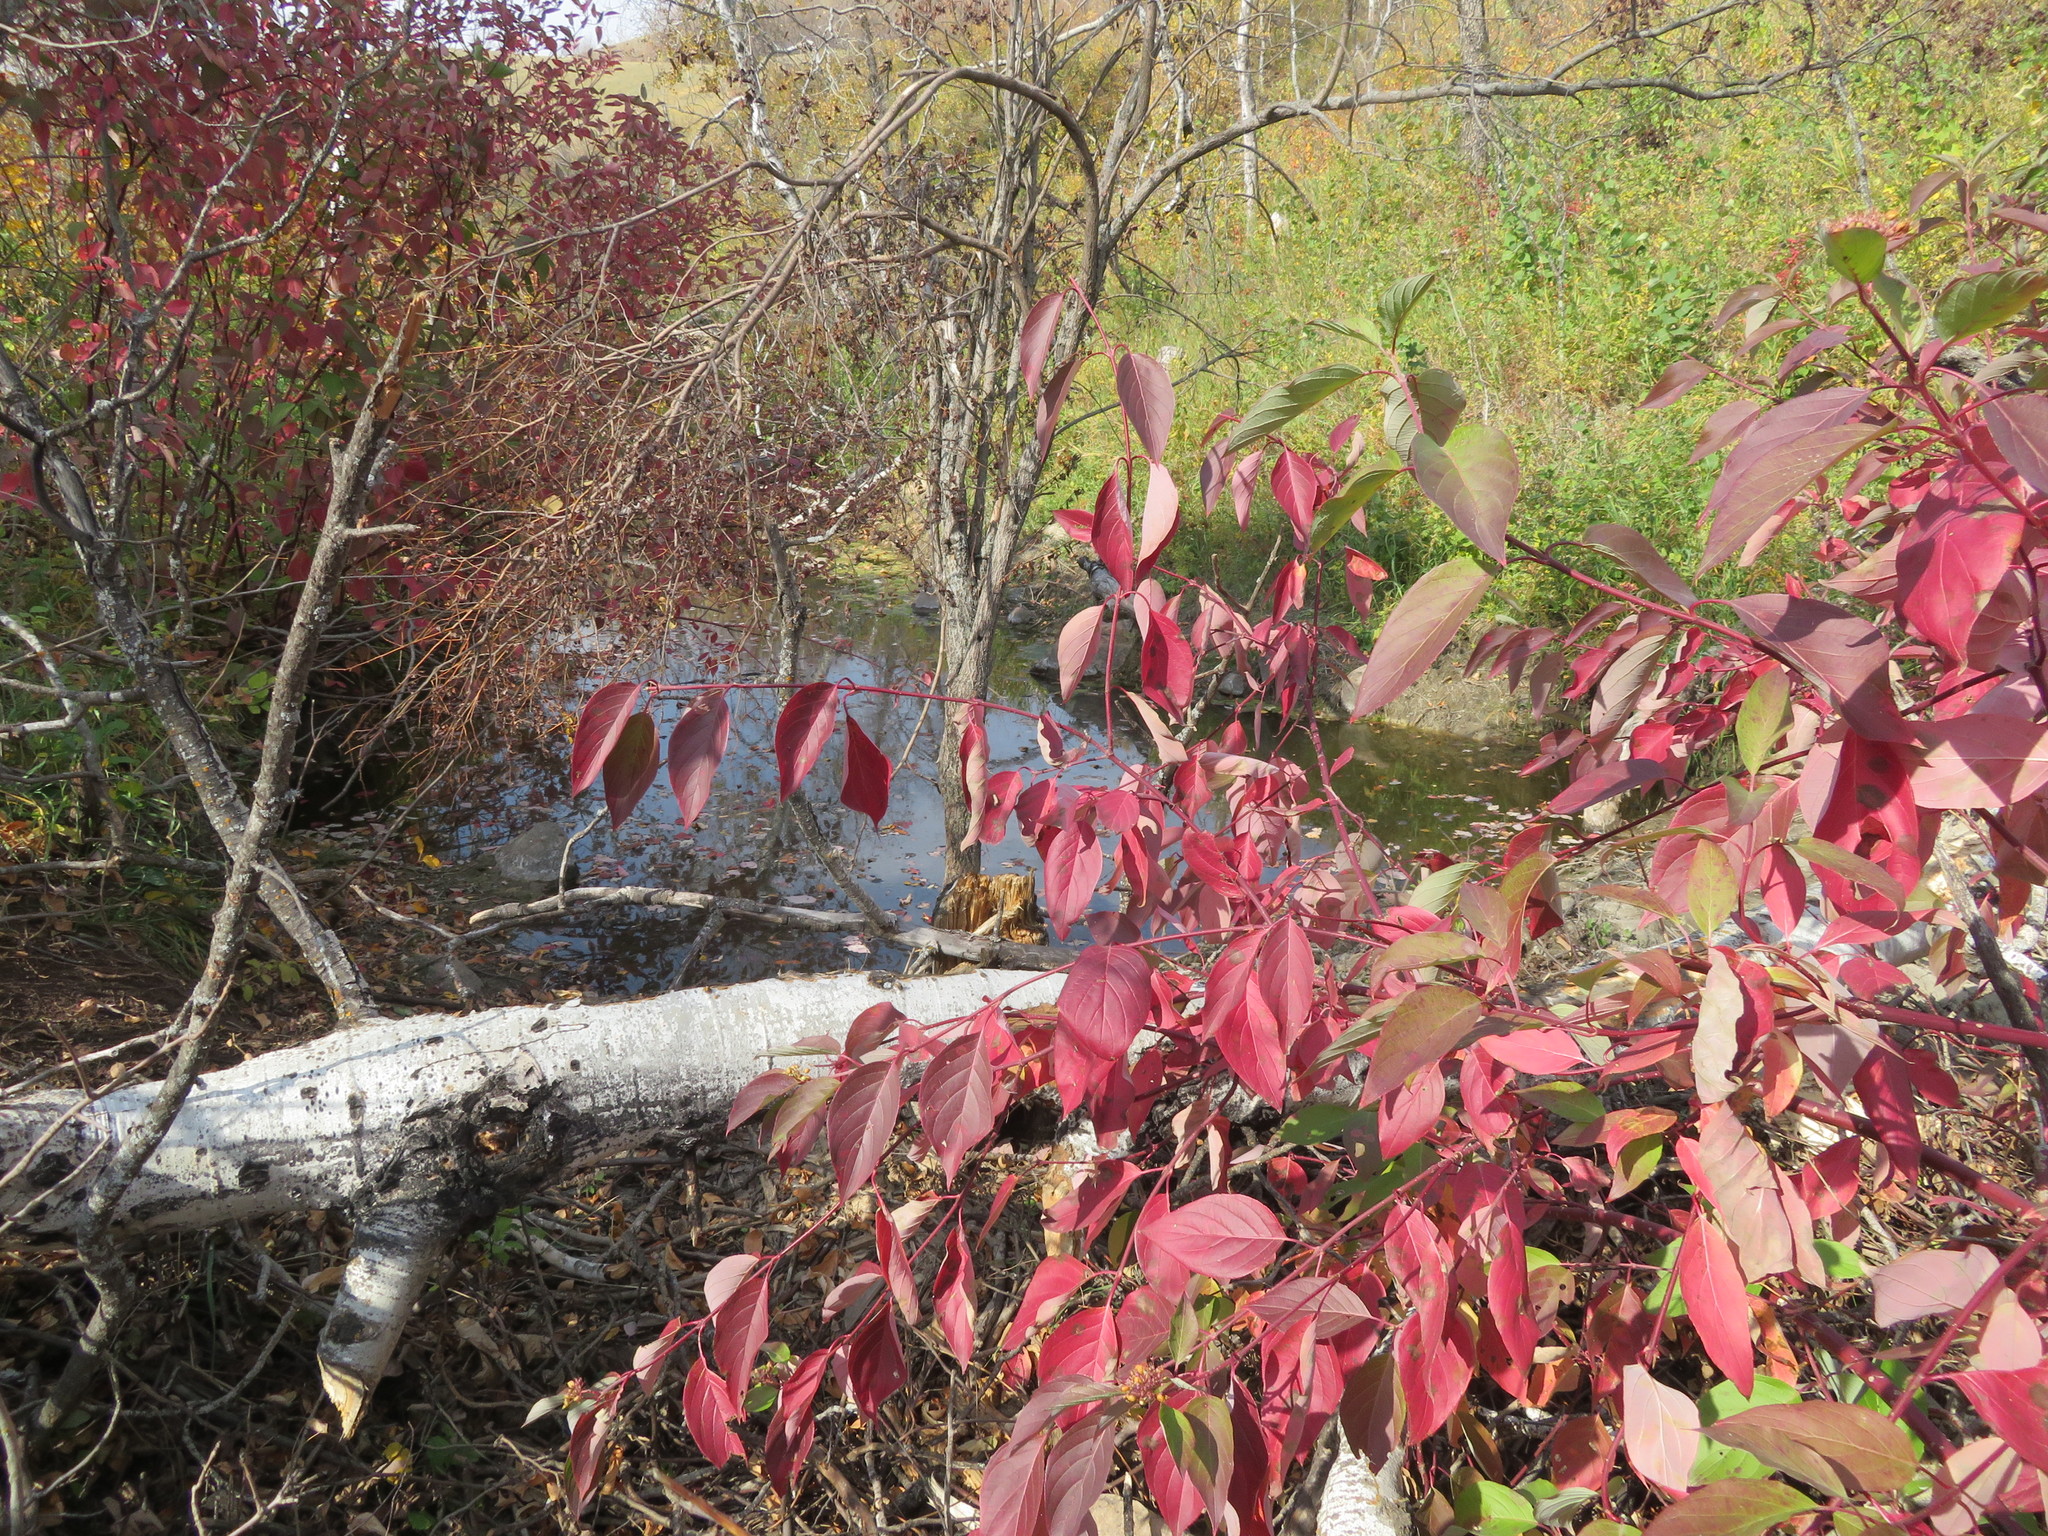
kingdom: Plantae
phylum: Tracheophyta
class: Magnoliopsida
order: Cornales
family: Cornaceae
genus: Cornus
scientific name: Cornus sericea
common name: Red-osier dogwood
